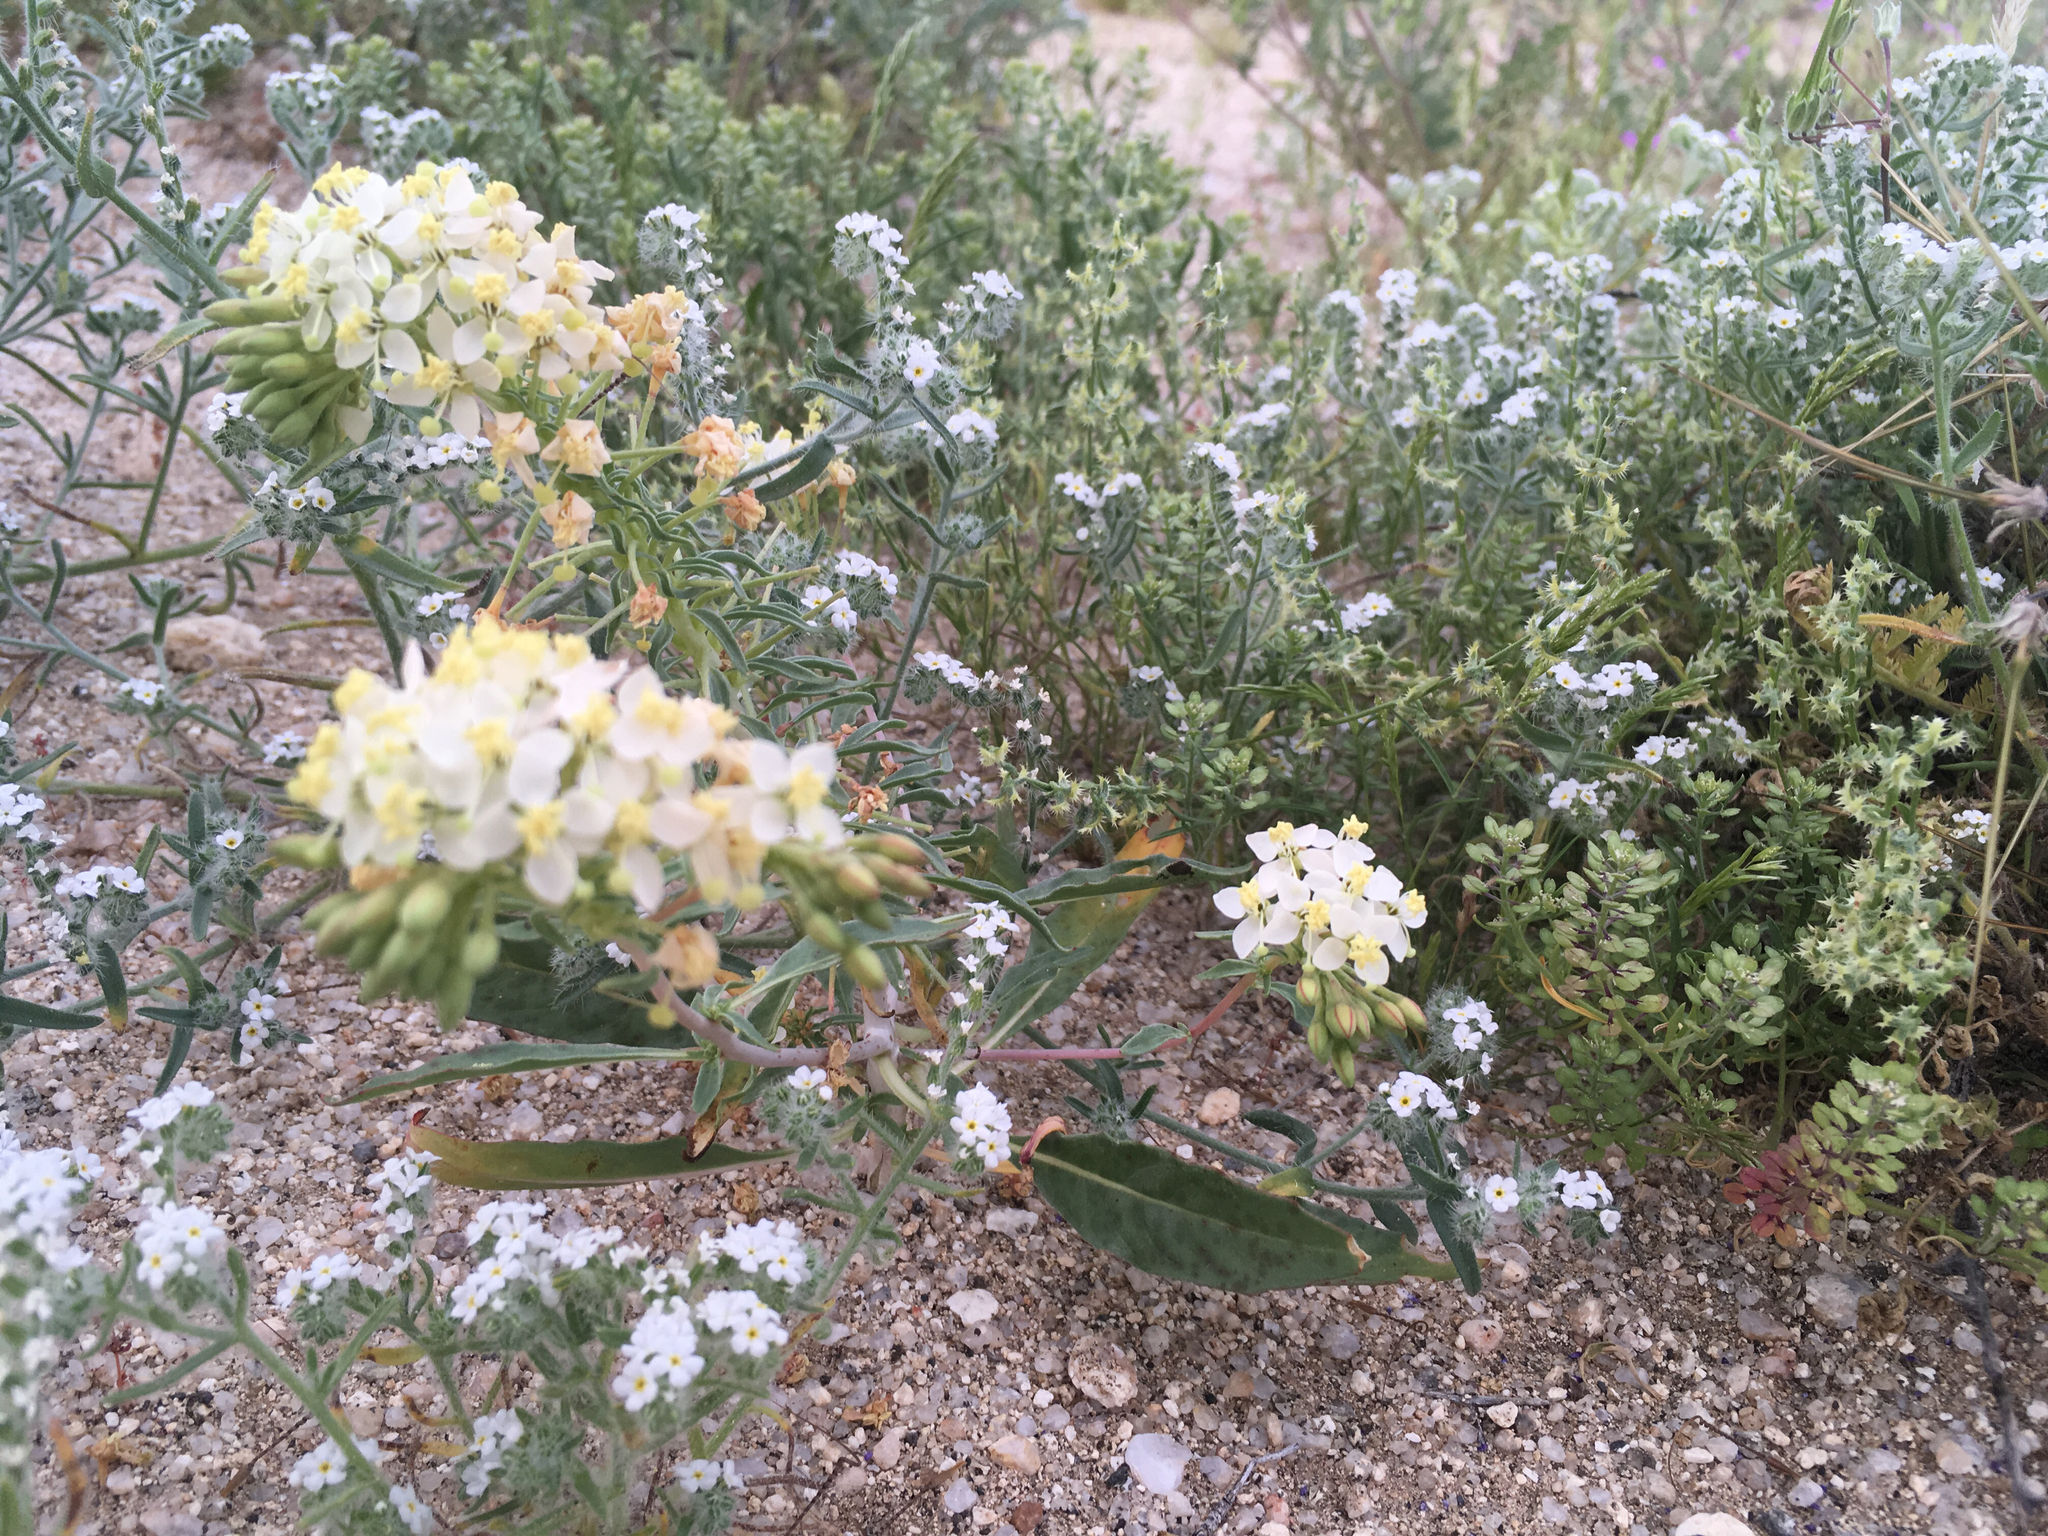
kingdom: Plantae
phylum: Tracheophyta
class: Magnoliopsida
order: Myrtales
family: Onagraceae
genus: Eremothera
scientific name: Eremothera boothii
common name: Booth's evening primrose
